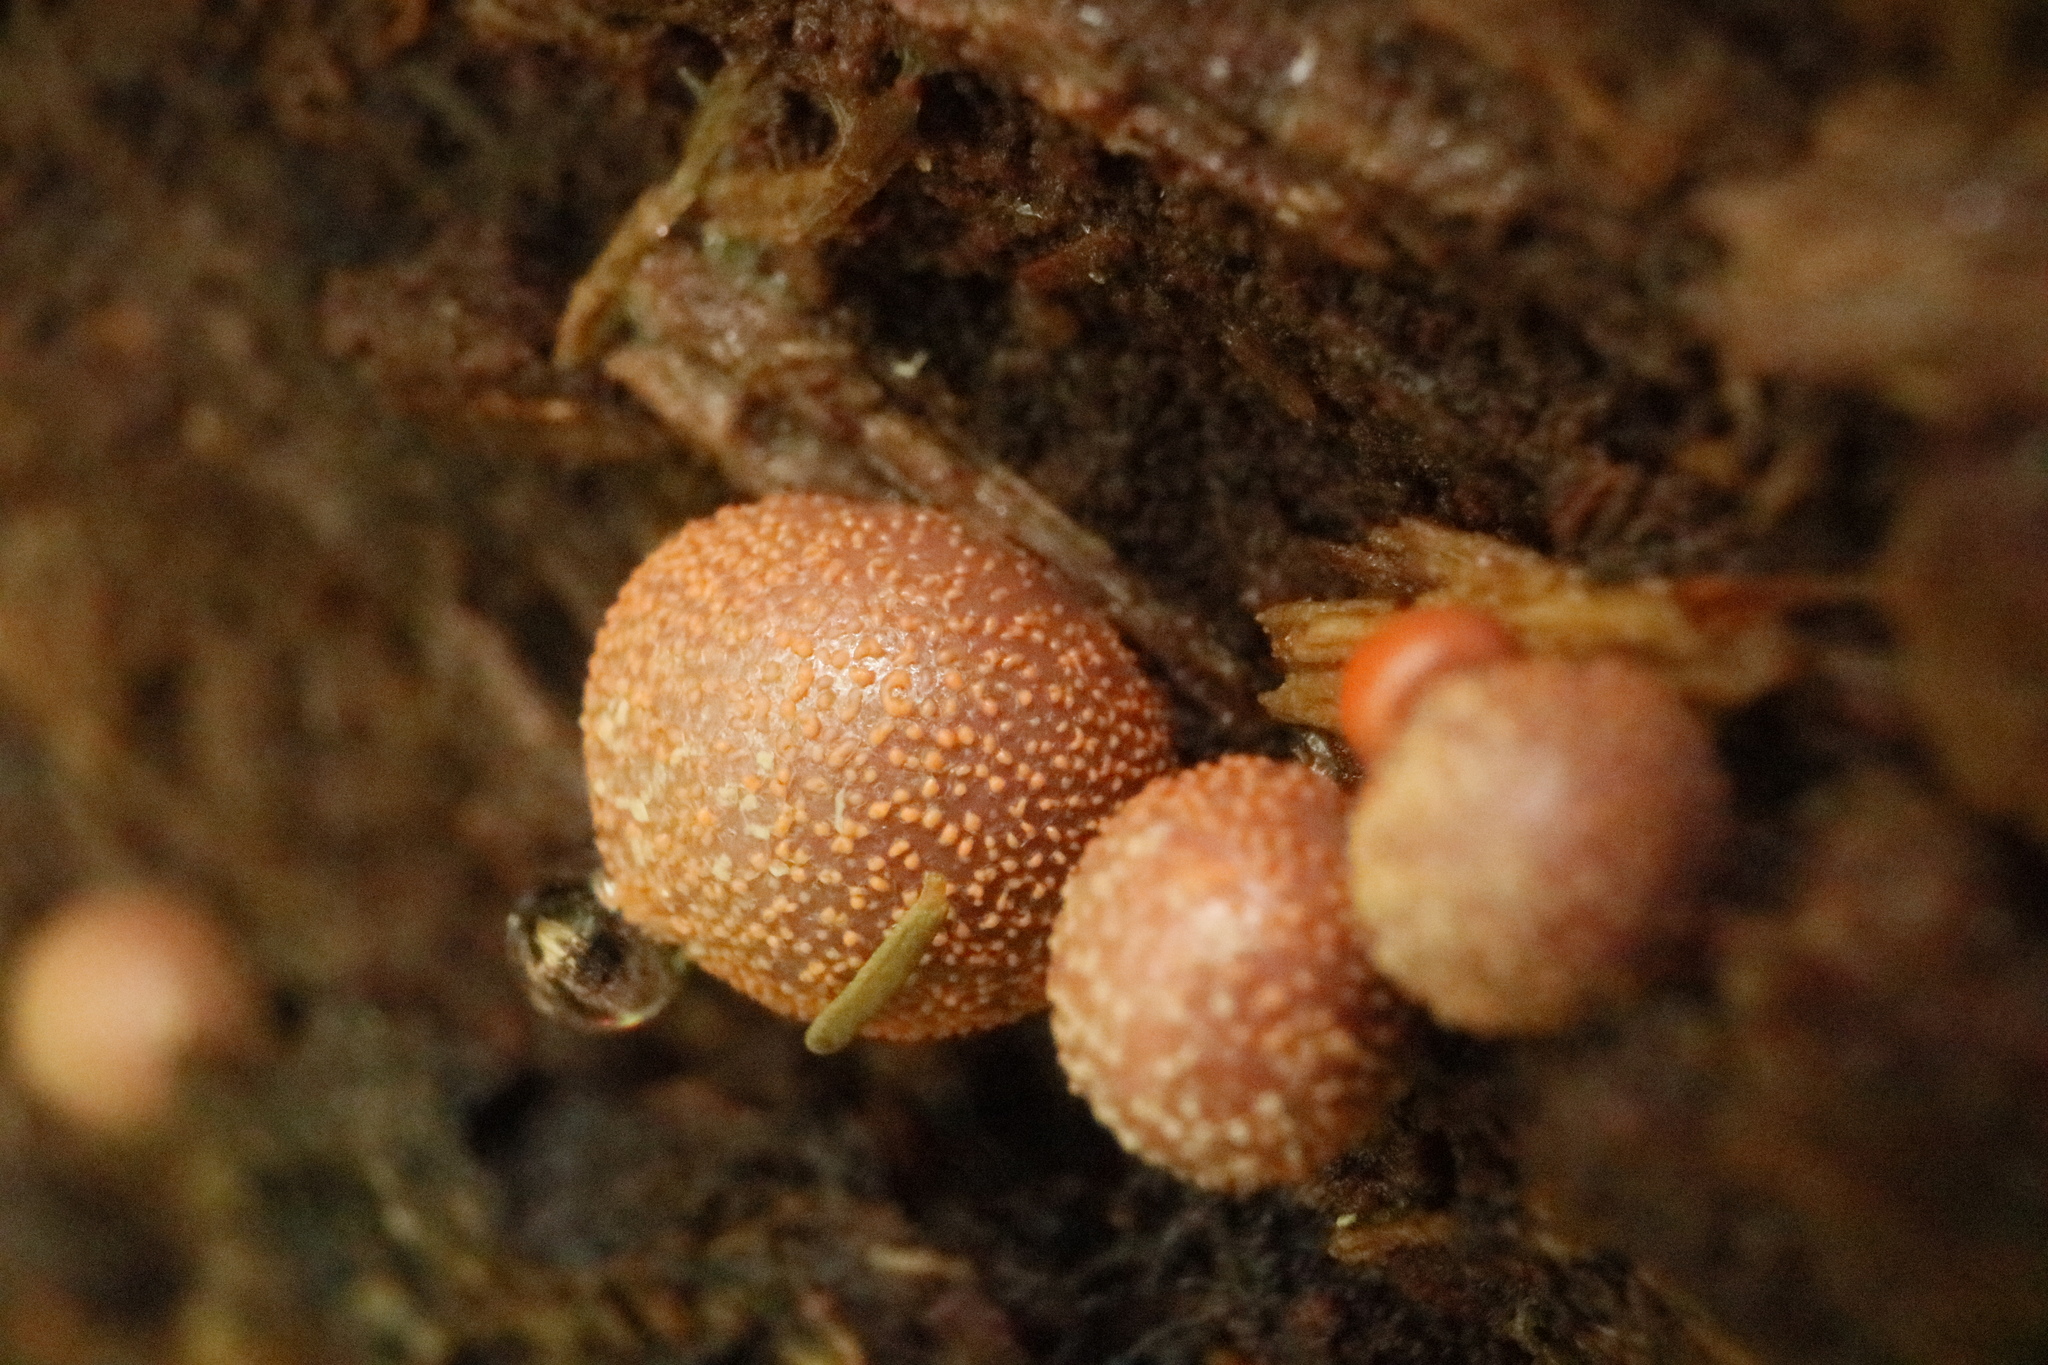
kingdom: Protozoa
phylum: Mycetozoa
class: Myxomycetes
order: Cribrariales
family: Tubiferaceae
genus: Lycogala
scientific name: Lycogala epidendrum
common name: Wolf's milk
